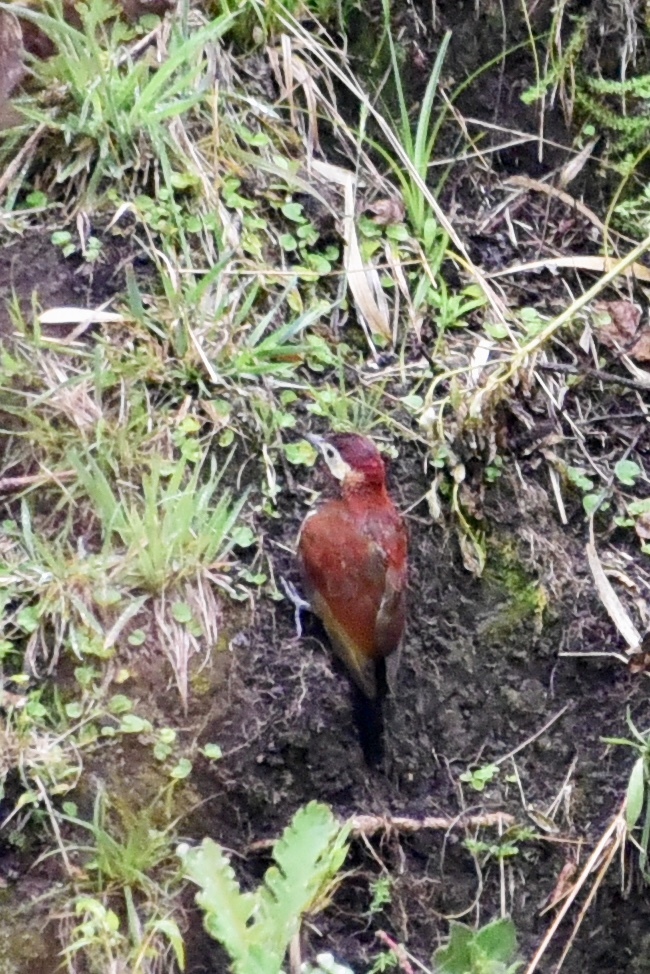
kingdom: Animalia
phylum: Chordata
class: Aves
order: Piciformes
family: Picidae
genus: Colaptes
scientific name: Colaptes rivolii
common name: Crimson-mantled woodpecker
